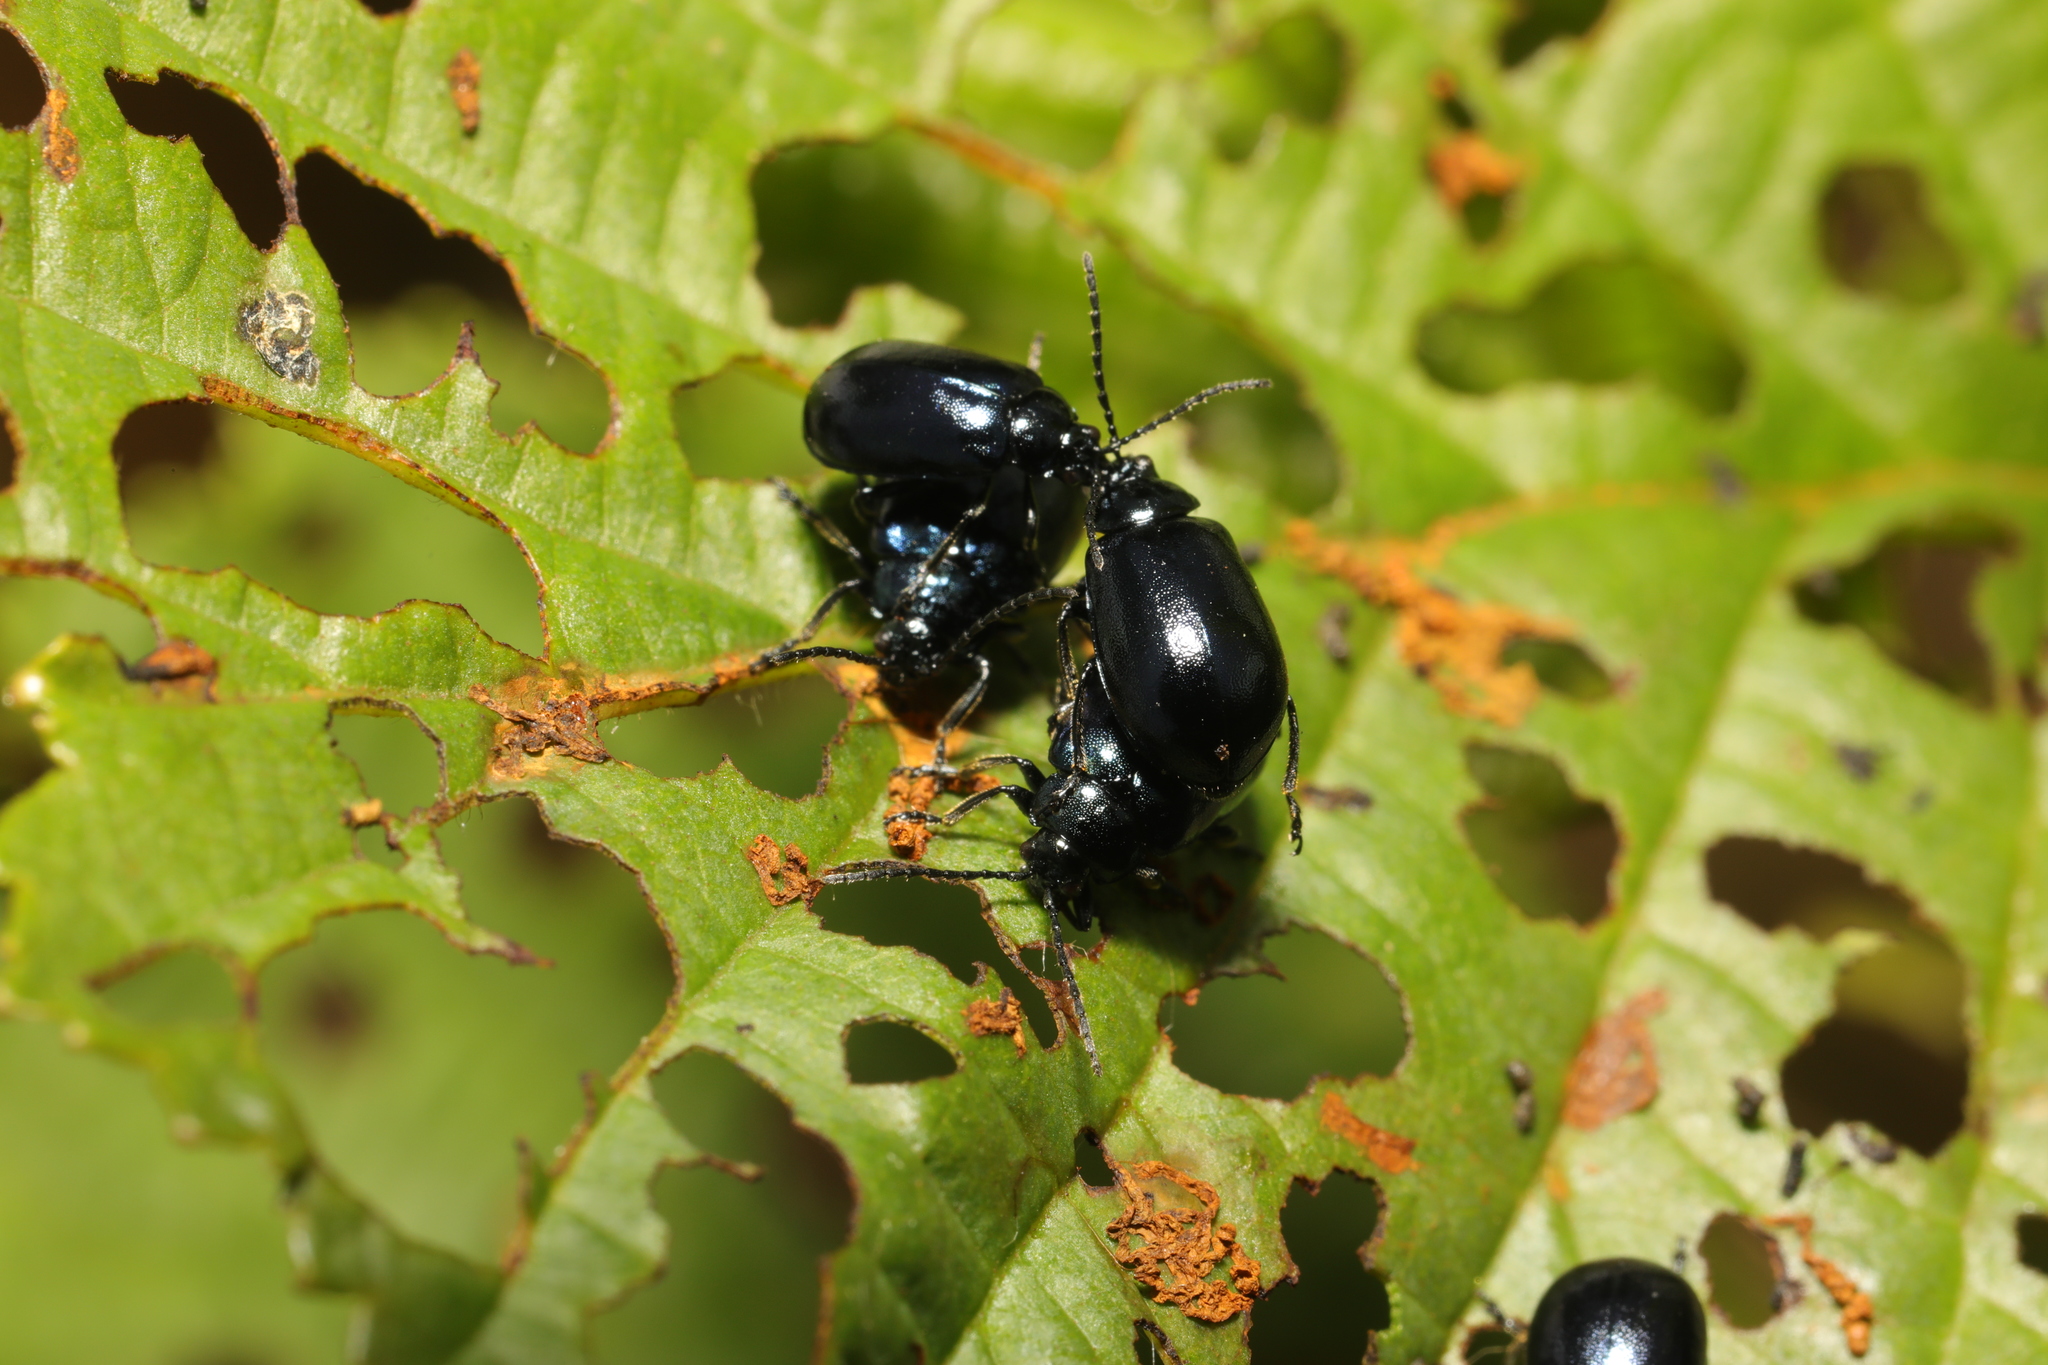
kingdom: Animalia
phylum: Arthropoda
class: Insecta
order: Coleoptera
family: Chrysomelidae
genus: Agelastica
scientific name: Agelastica alni
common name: Alder leaf beetle
